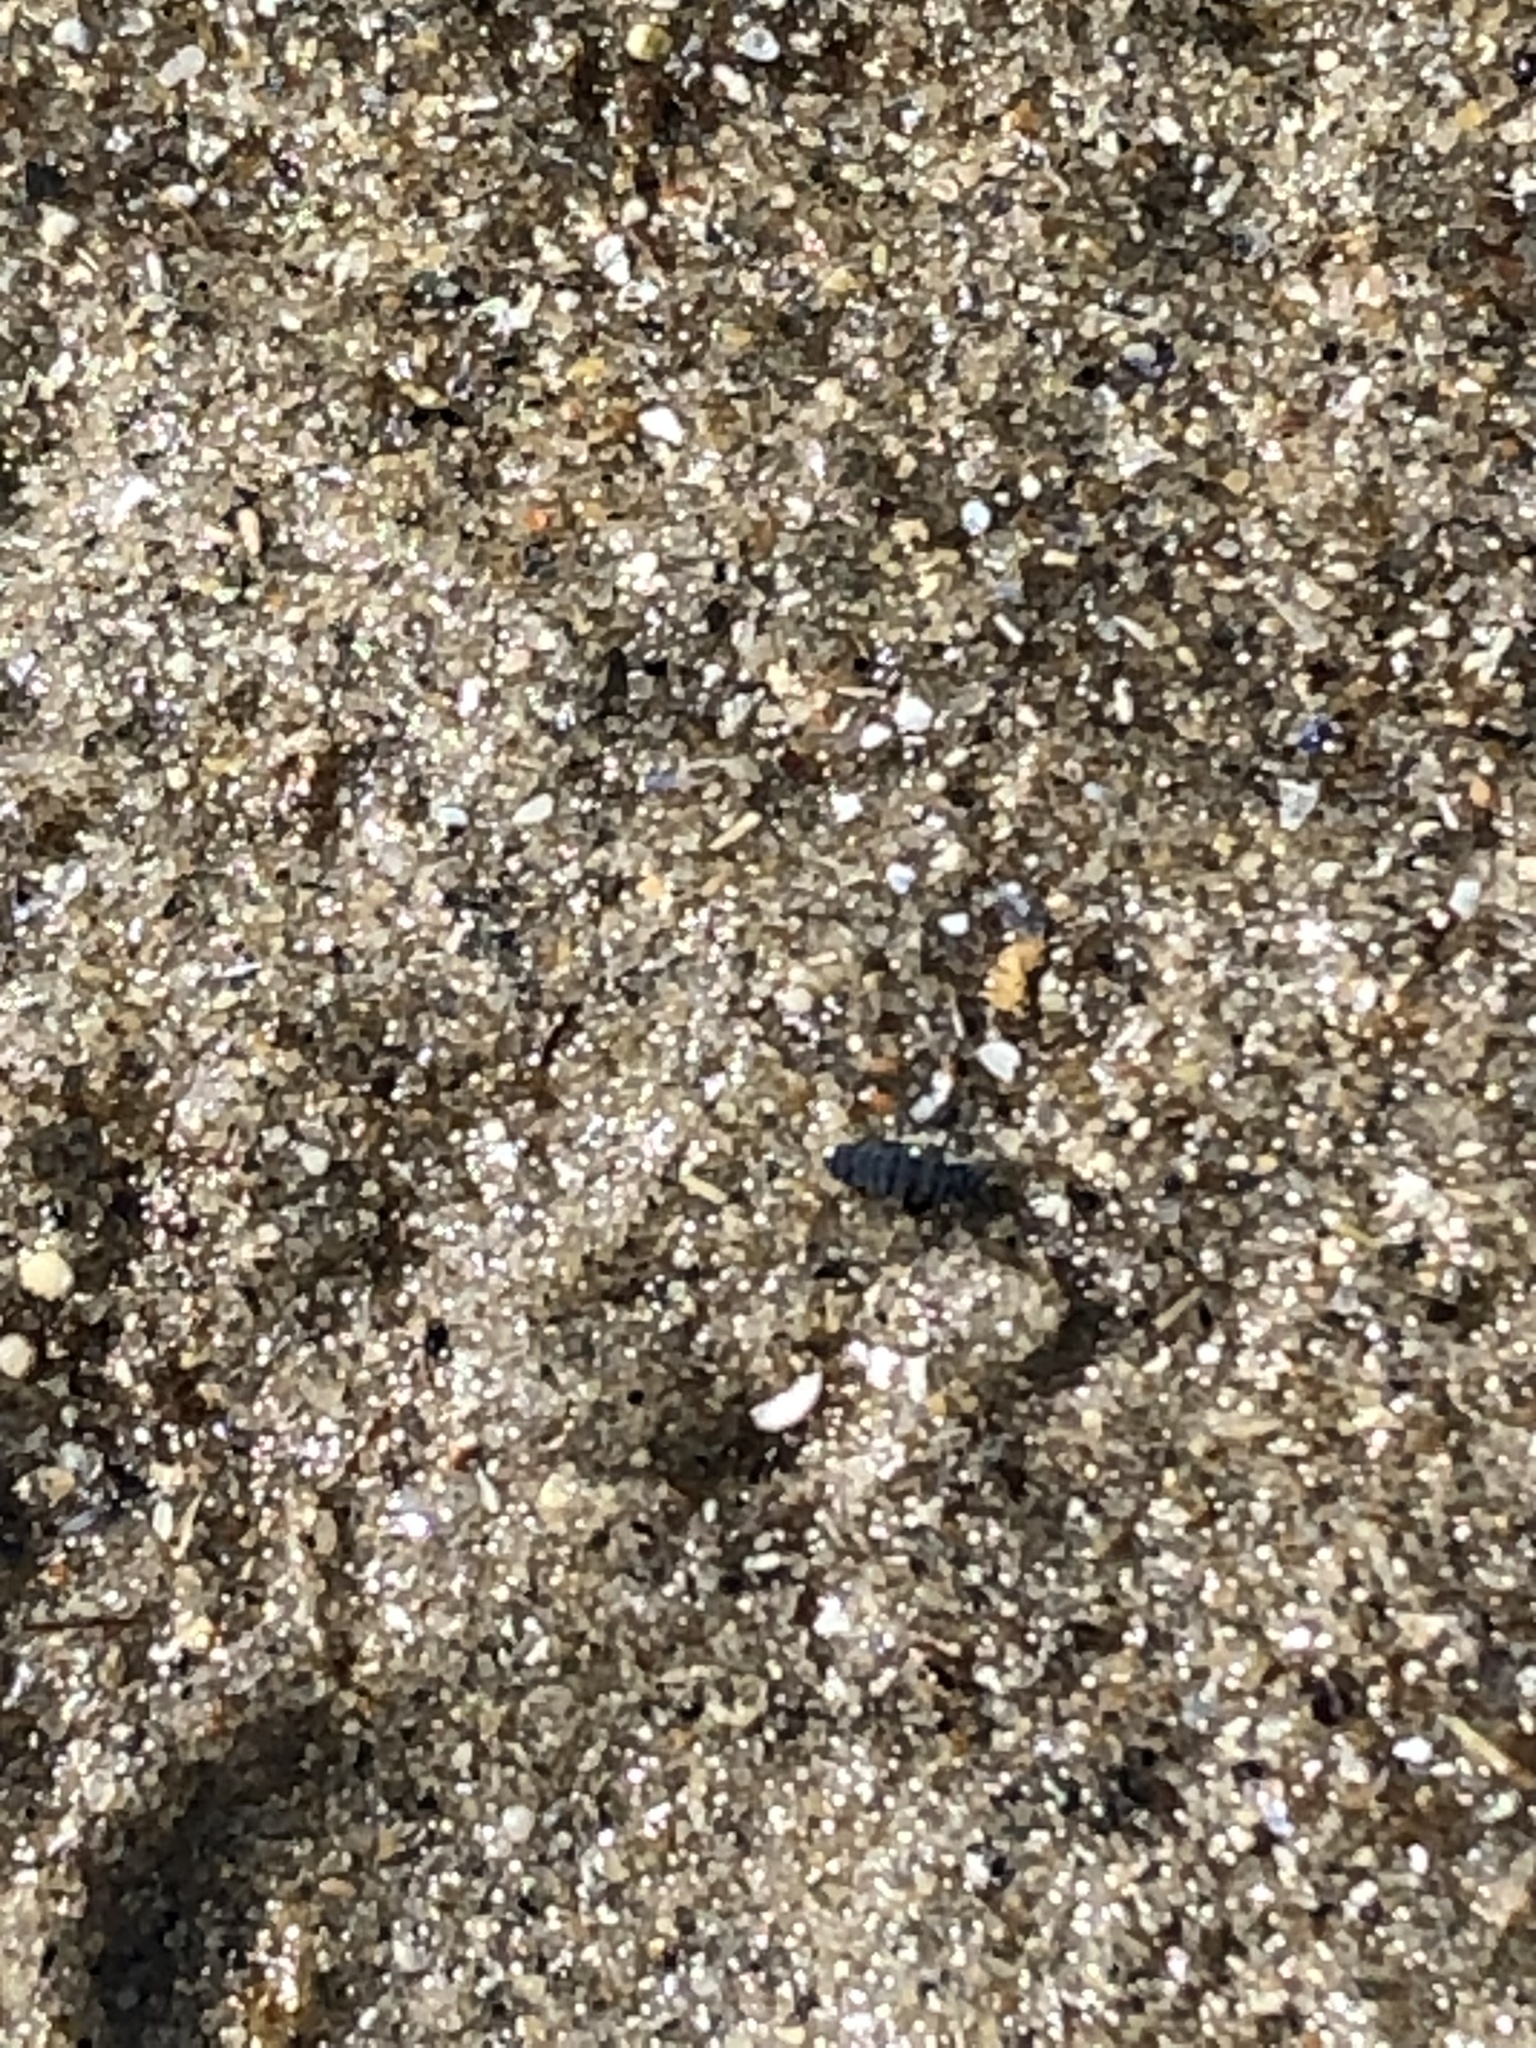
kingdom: Animalia
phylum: Arthropoda
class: Collembola
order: Poduromorpha
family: Neanuridae
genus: Anurida
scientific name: Anurida maritima
